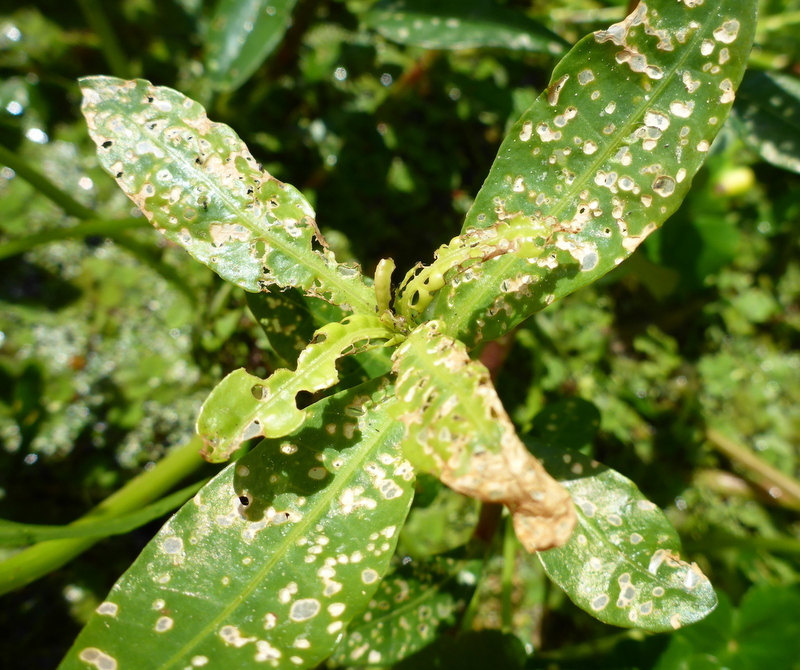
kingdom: Plantae
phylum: Tracheophyta
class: Magnoliopsida
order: Caryophyllales
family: Amaranthaceae
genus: Alternanthera
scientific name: Alternanthera philoxeroides
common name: Alligatorweed
